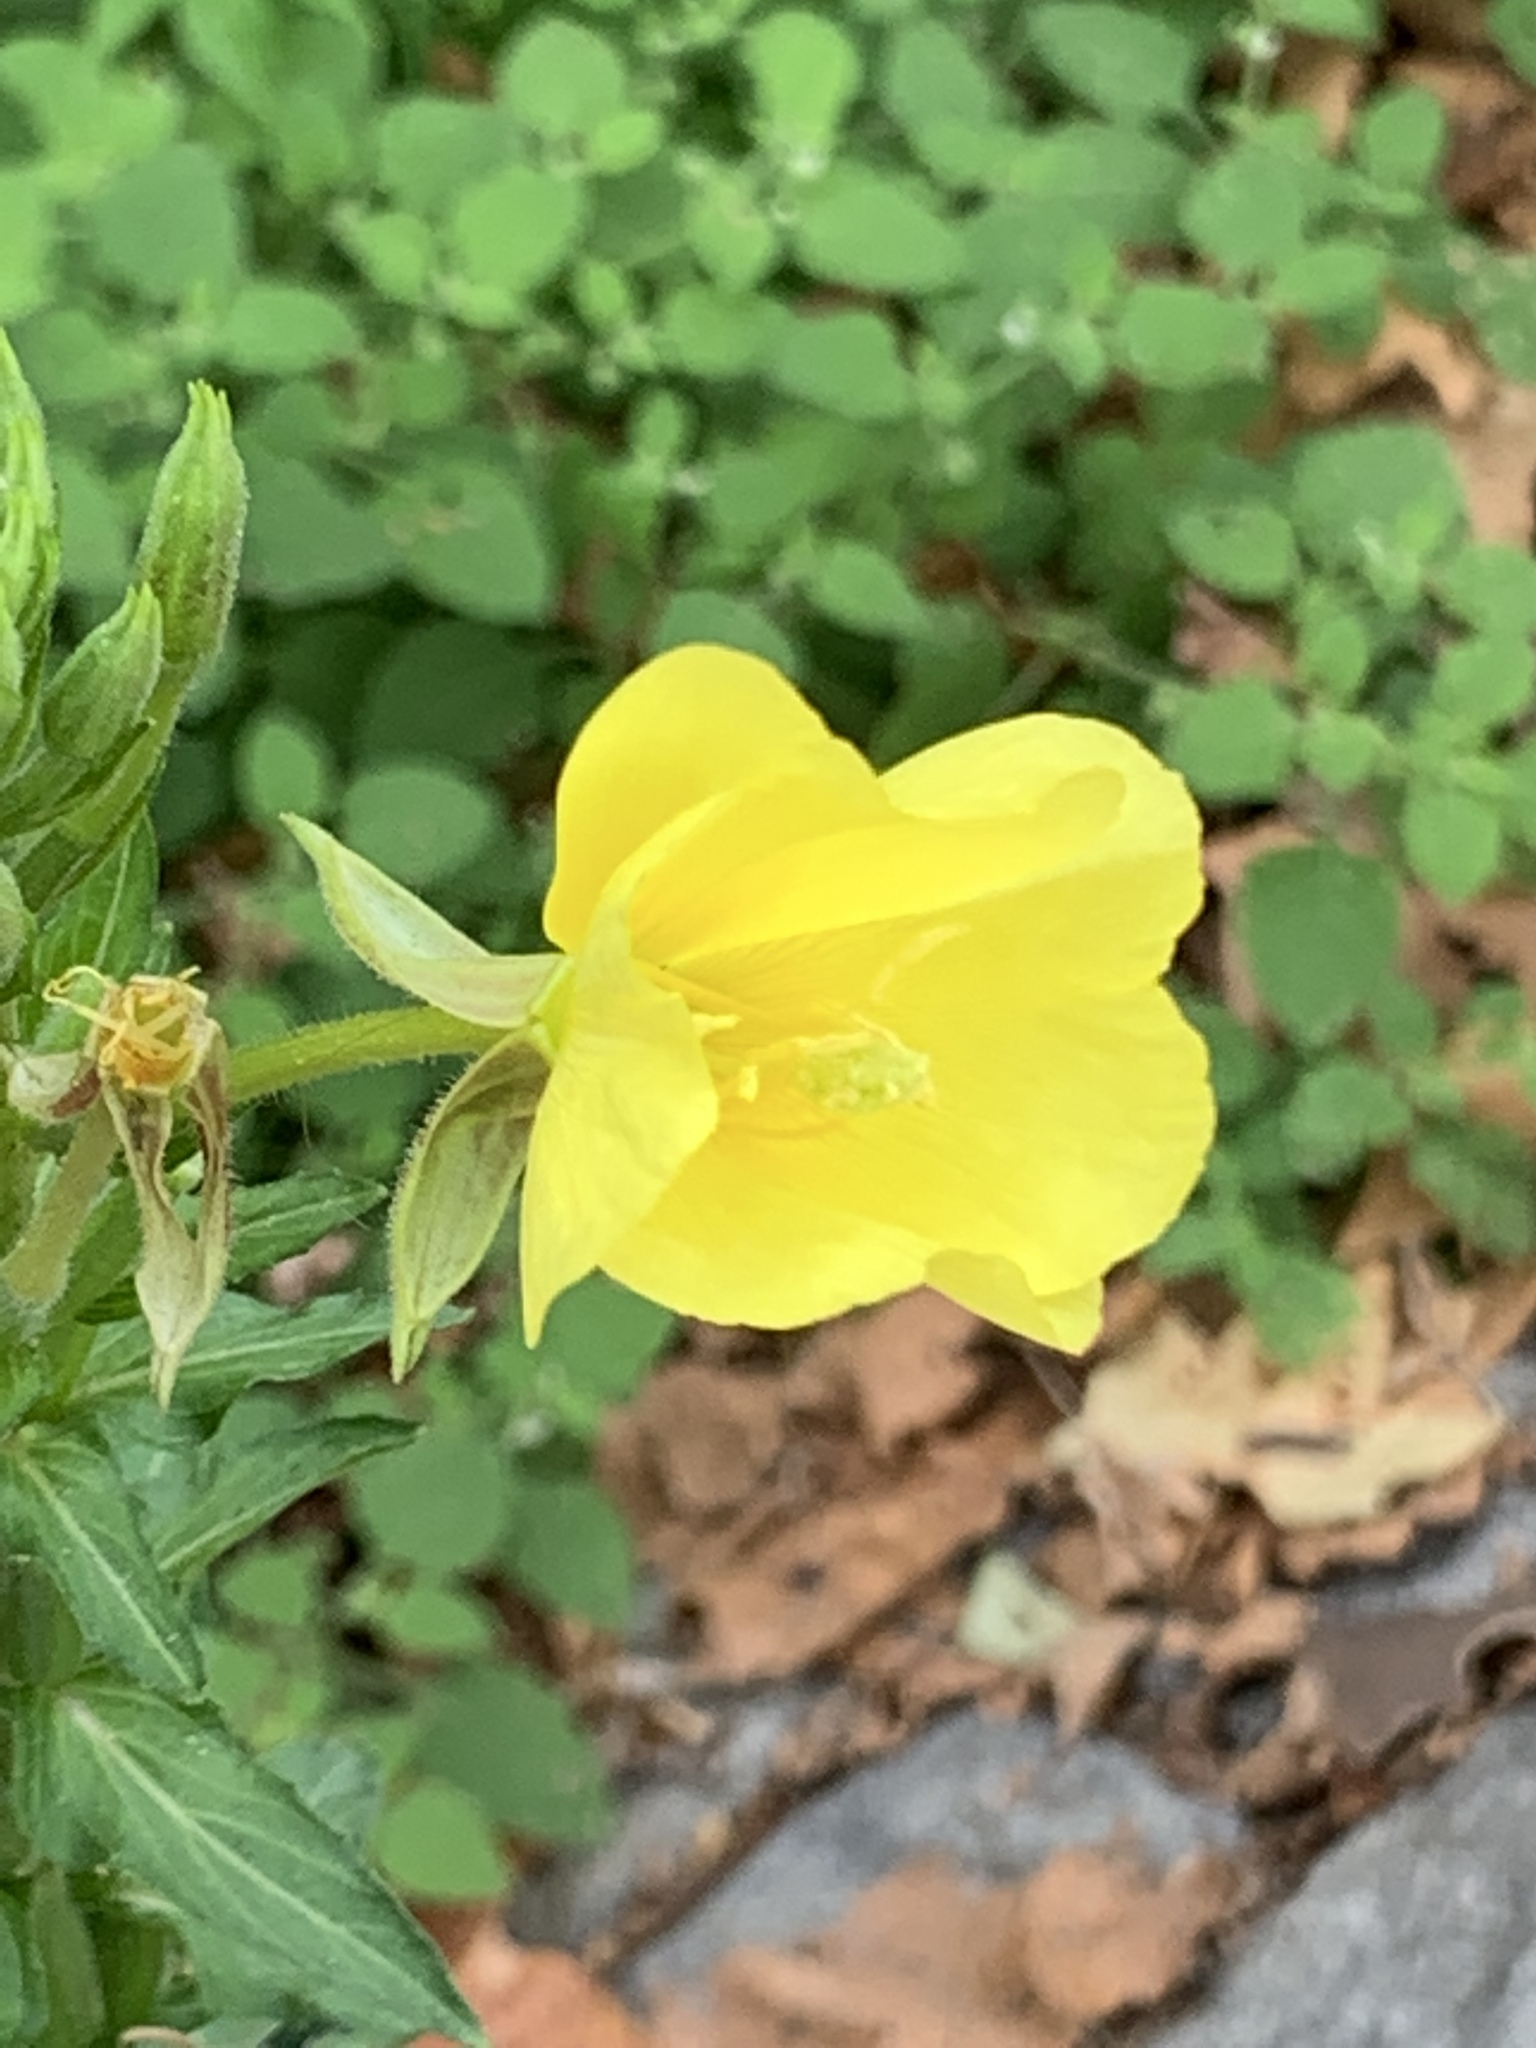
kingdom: Plantae
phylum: Tracheophyta
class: Magnoliopsida
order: Myrtales
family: Onagraceae
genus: Oenothera
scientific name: Oenothera biennis
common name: Common evening-primrose
